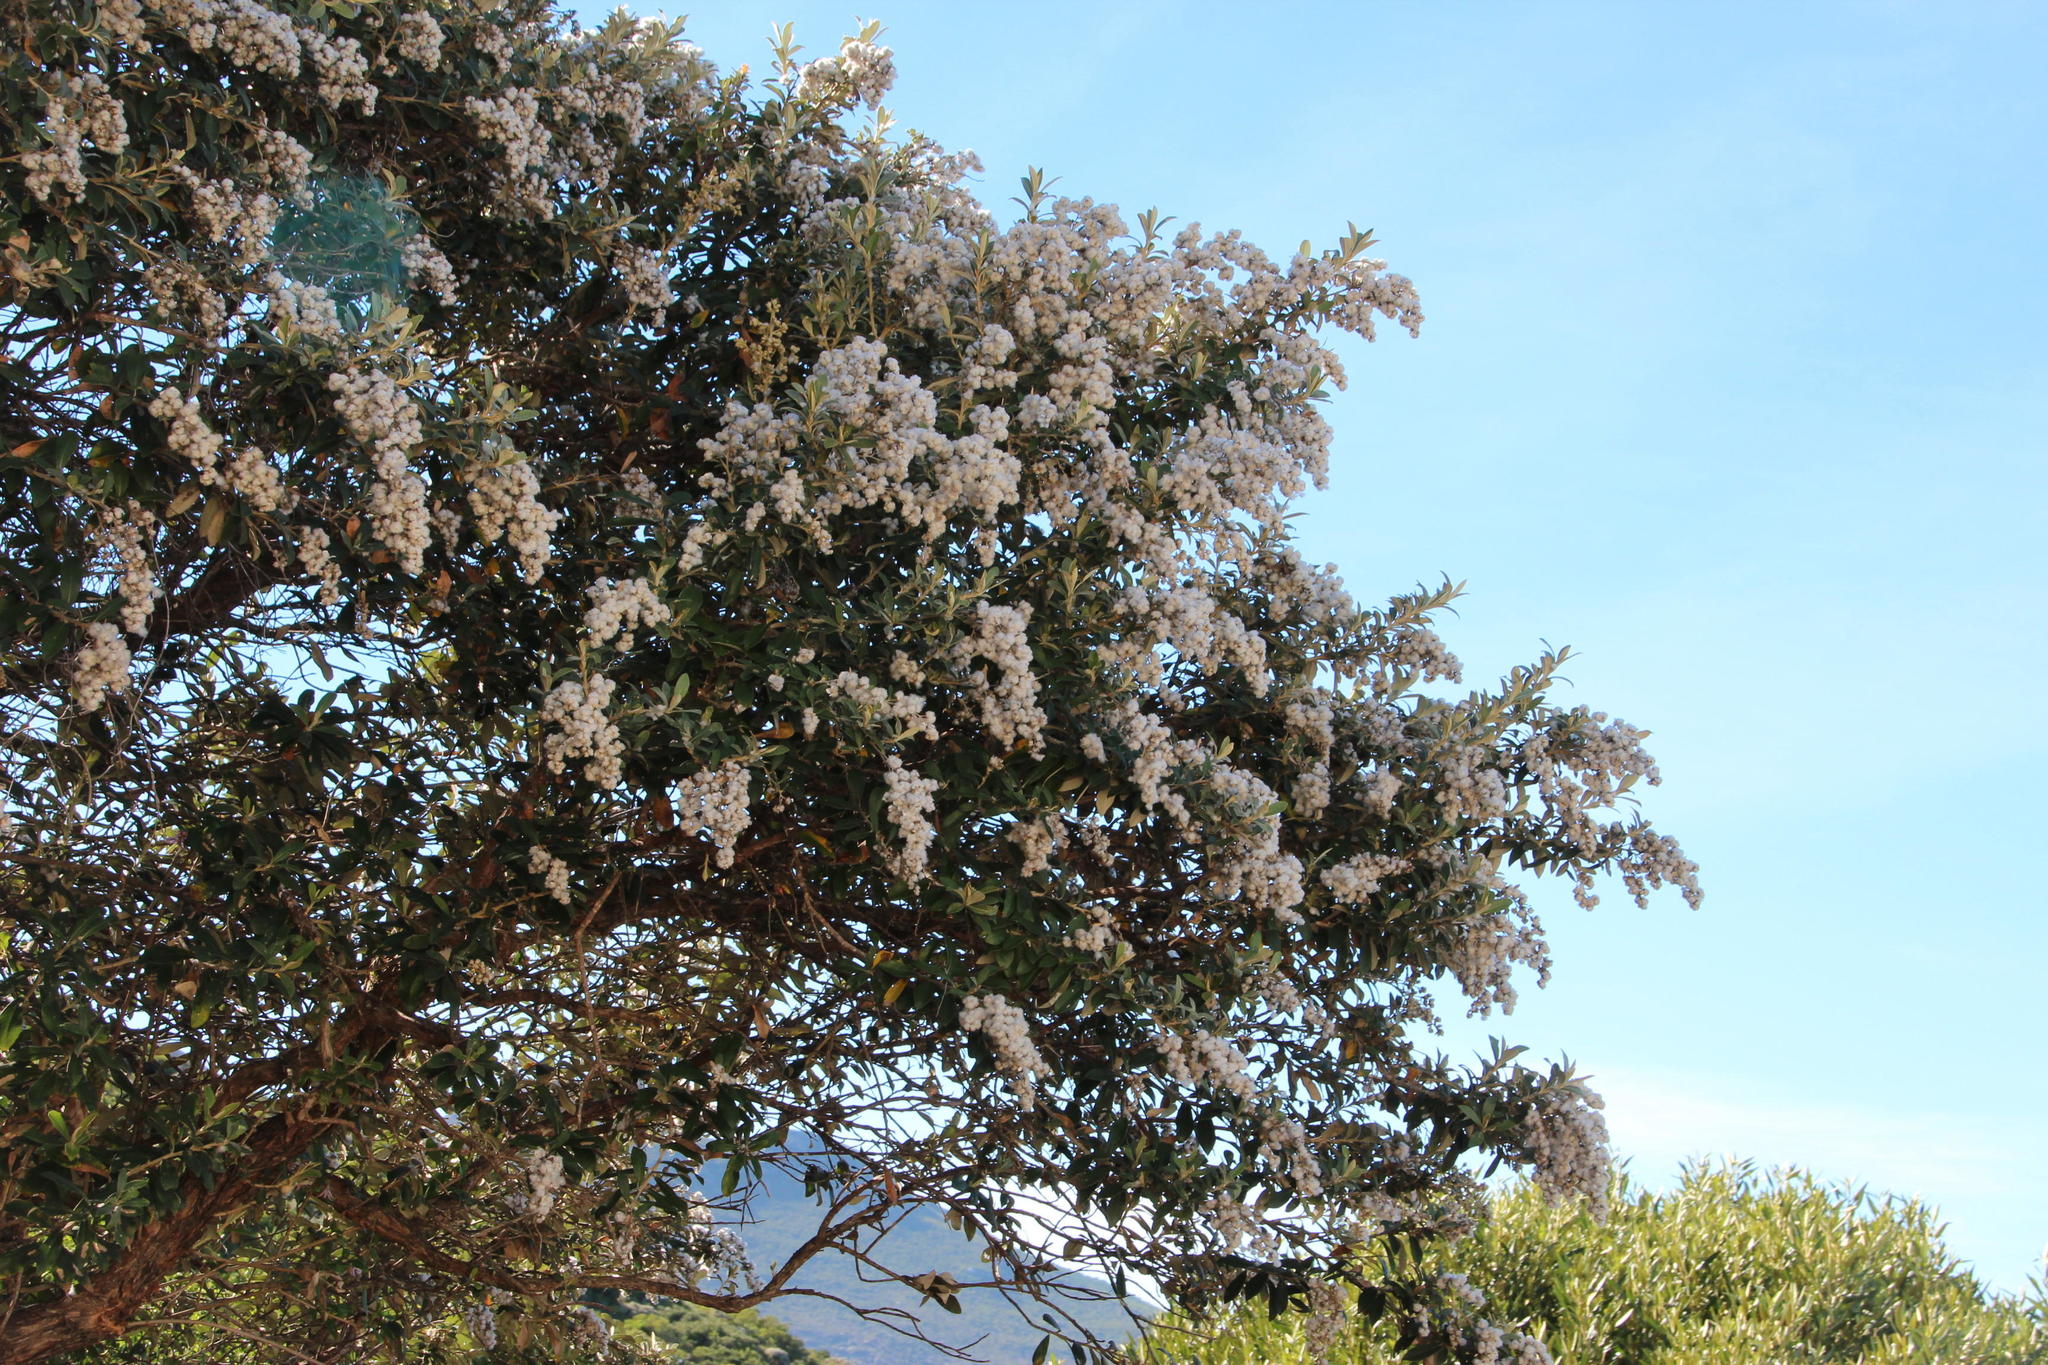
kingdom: Plantae
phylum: Tracheophyta
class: Magnoliopsida
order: Asterales
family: Asteraceae
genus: Tarchonanthus
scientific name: Tarchonanthus littoralis
